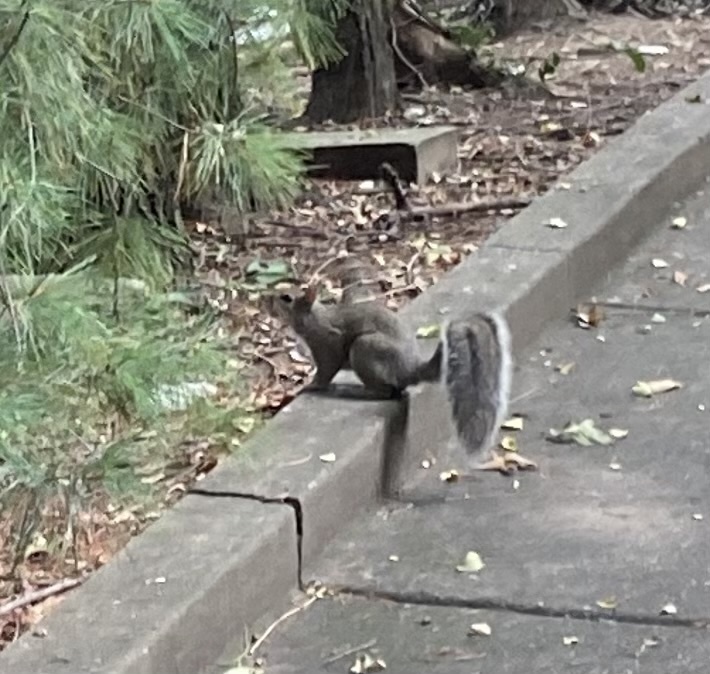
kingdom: Animalia
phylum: Chordata
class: Mammalia
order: Rodentia
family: Sciuridae
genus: Sciurus
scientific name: Sciurus carolinensis
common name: Eastern gray squirrel
